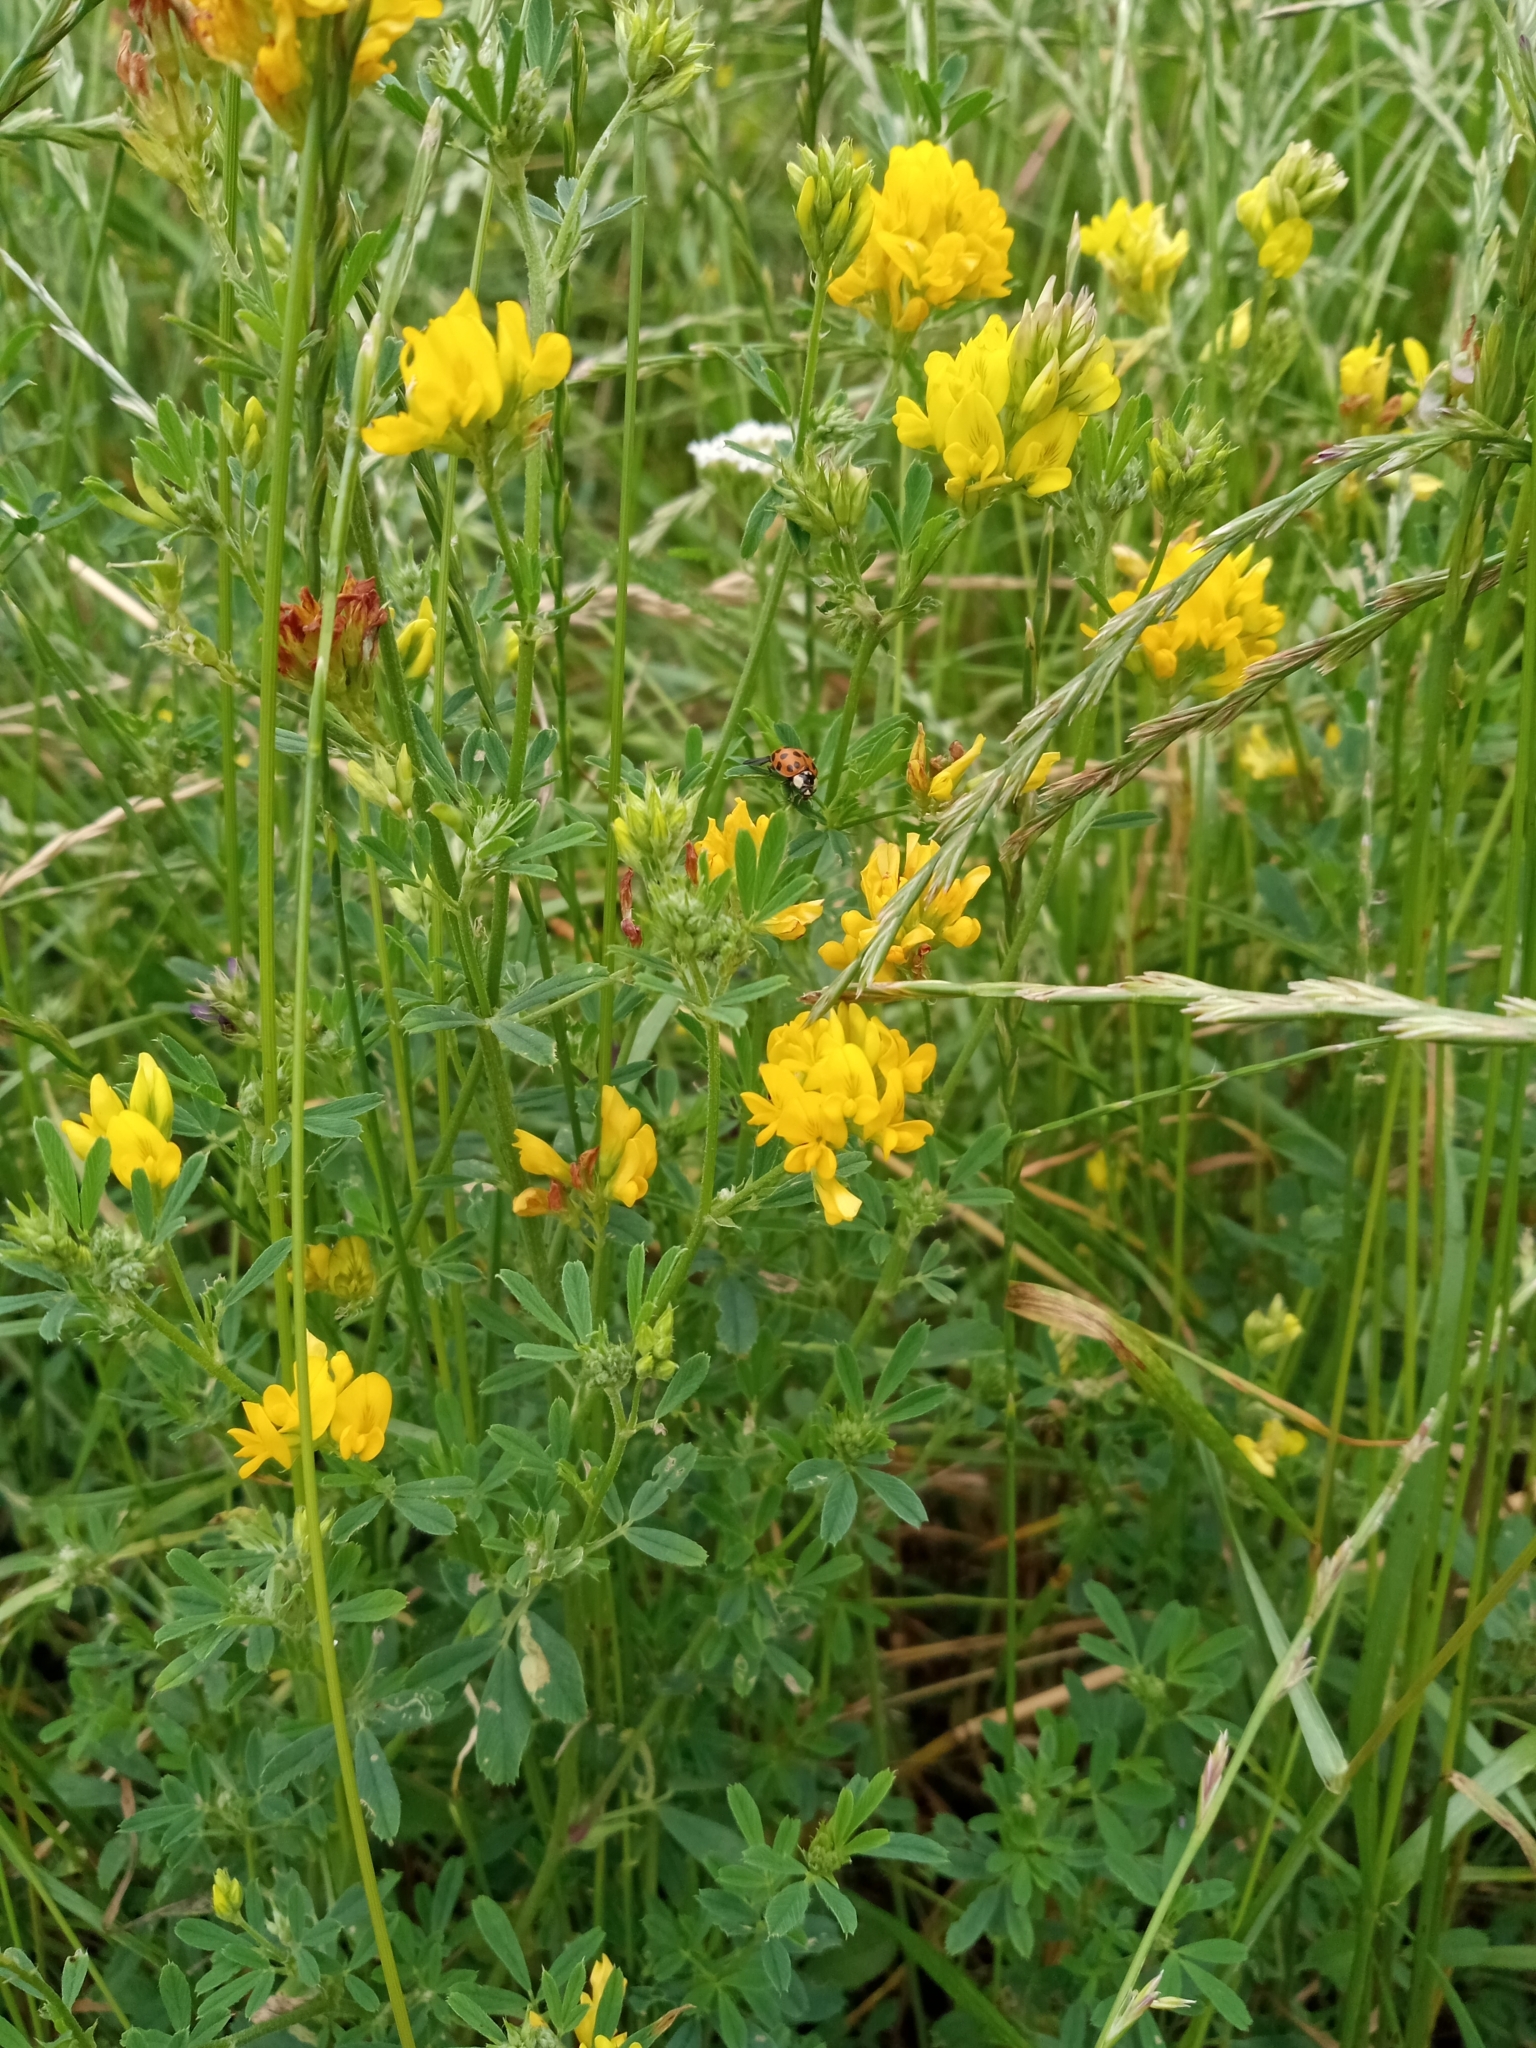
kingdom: Plantae
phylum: Tracheophyta
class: Magnoliopsida
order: Fabales
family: Fabaceae
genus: Medicago
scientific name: Medicago falcata
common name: Sickle medick
